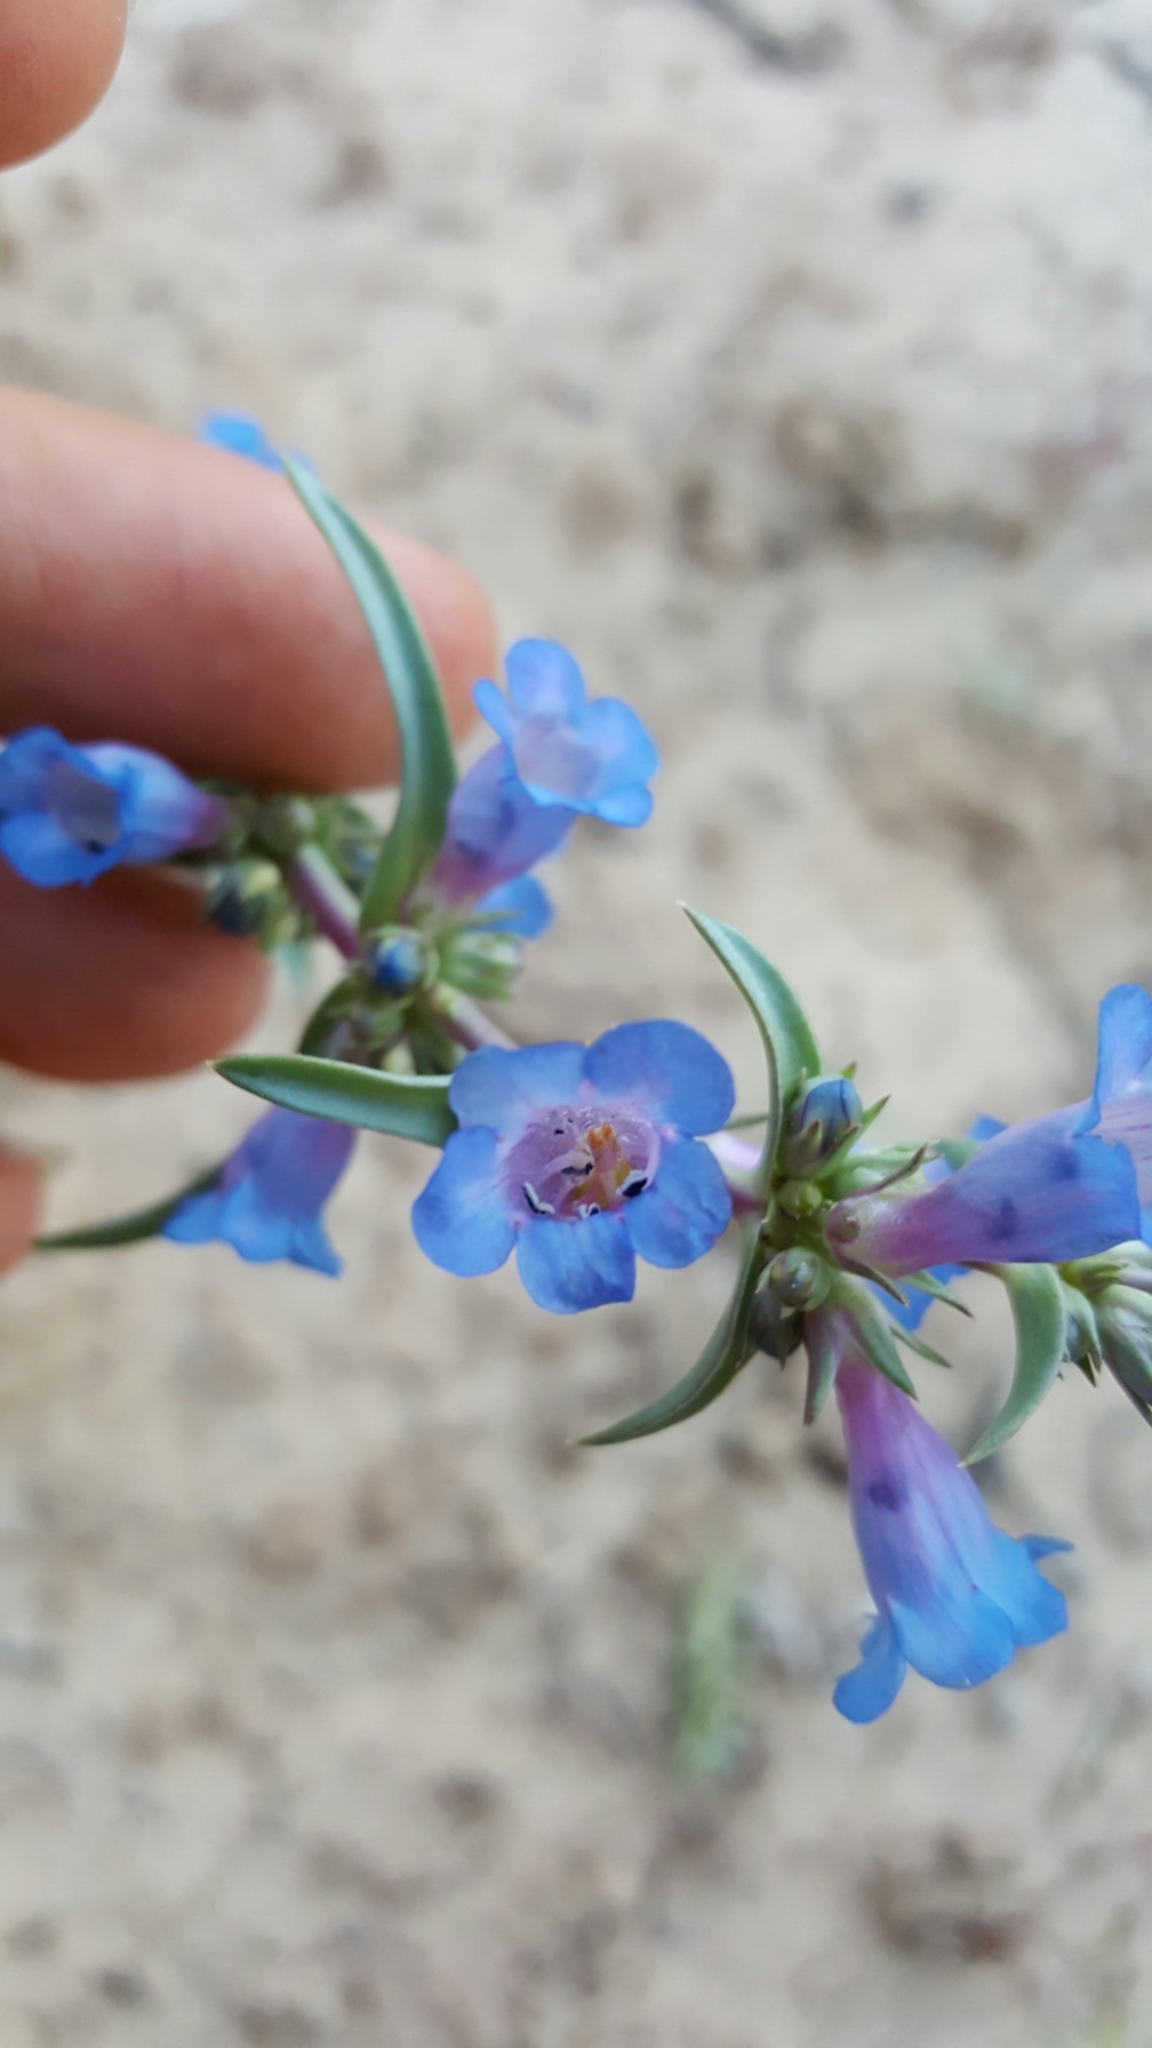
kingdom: Plantae
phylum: Tracheophyta
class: Magnoliopsida
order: Lamiales
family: Plantaginaceae
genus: Penstemon
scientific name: Penstemon angustifolius
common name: Narrow beardtongue
